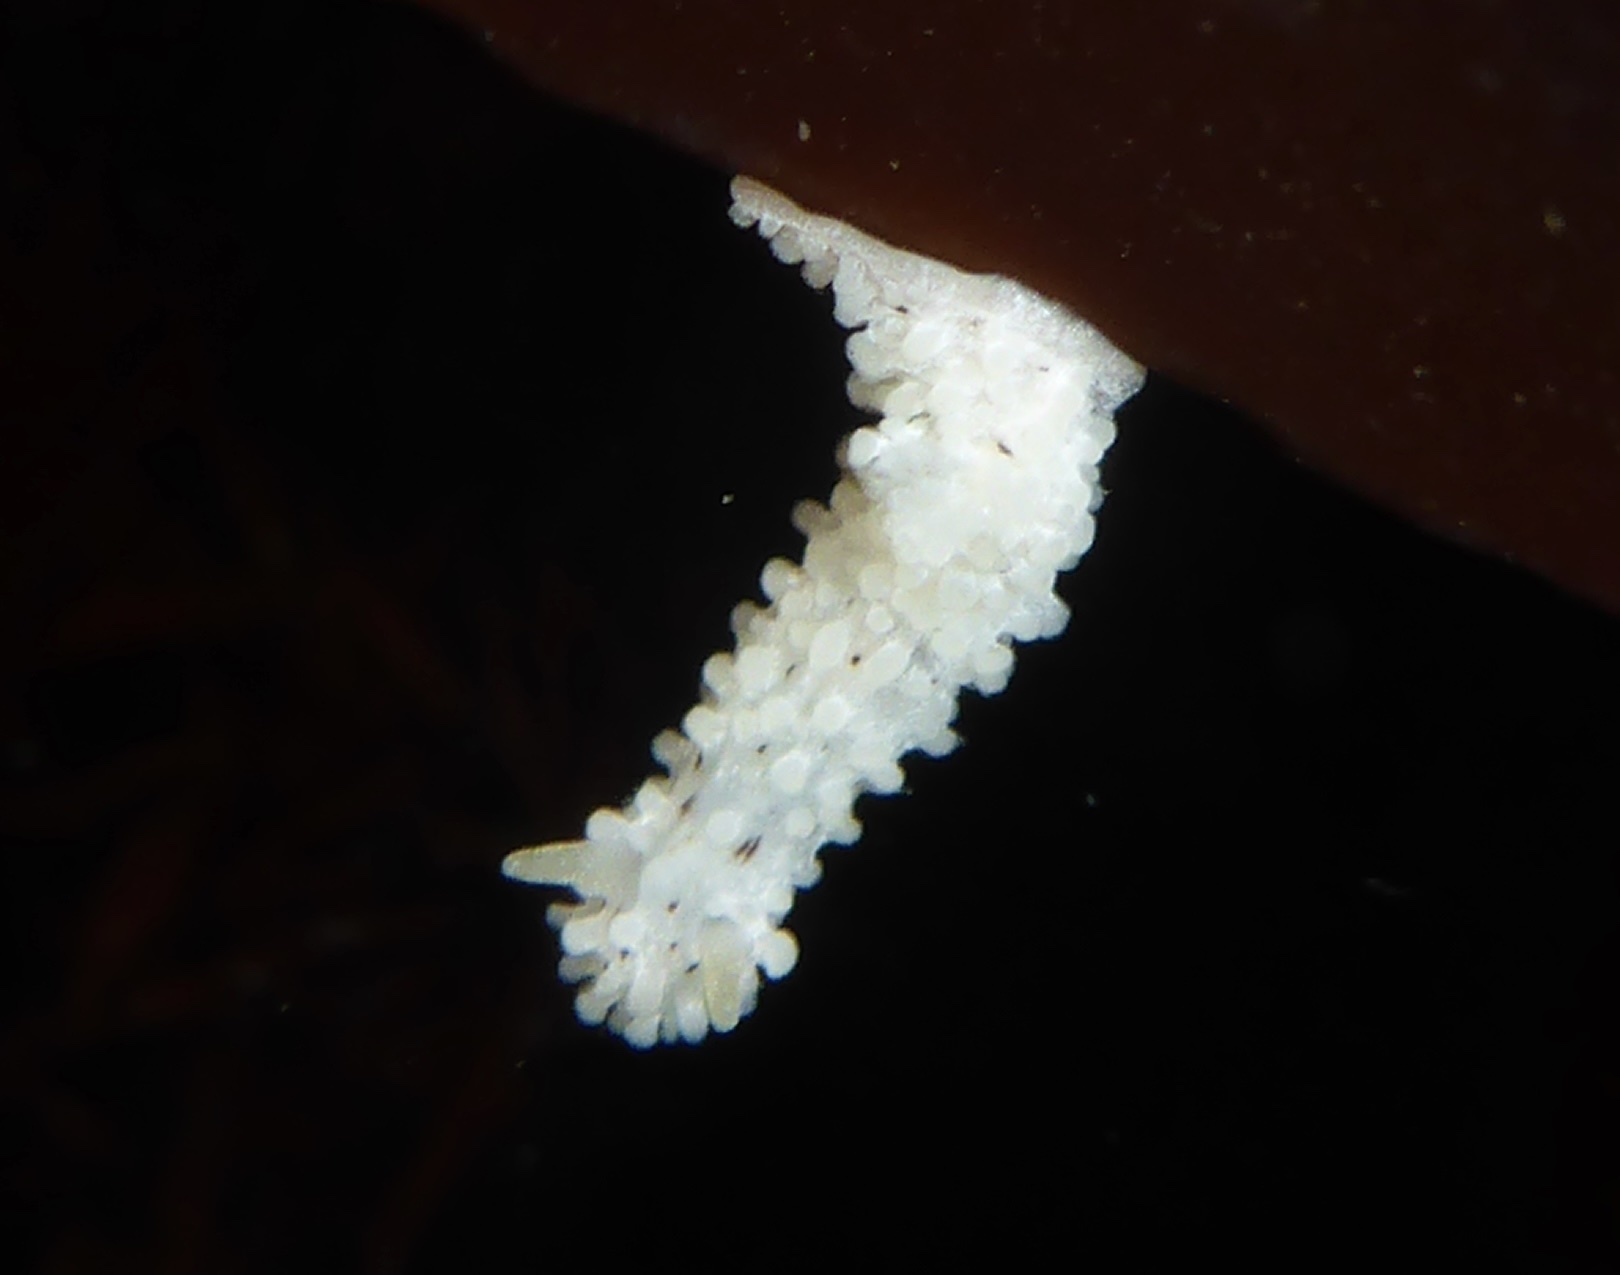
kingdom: Animalia
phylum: Mollusca
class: Gastropoda
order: Nudibranchia
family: Aegiridae
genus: Aegires
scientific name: Aegires albopunctatus
